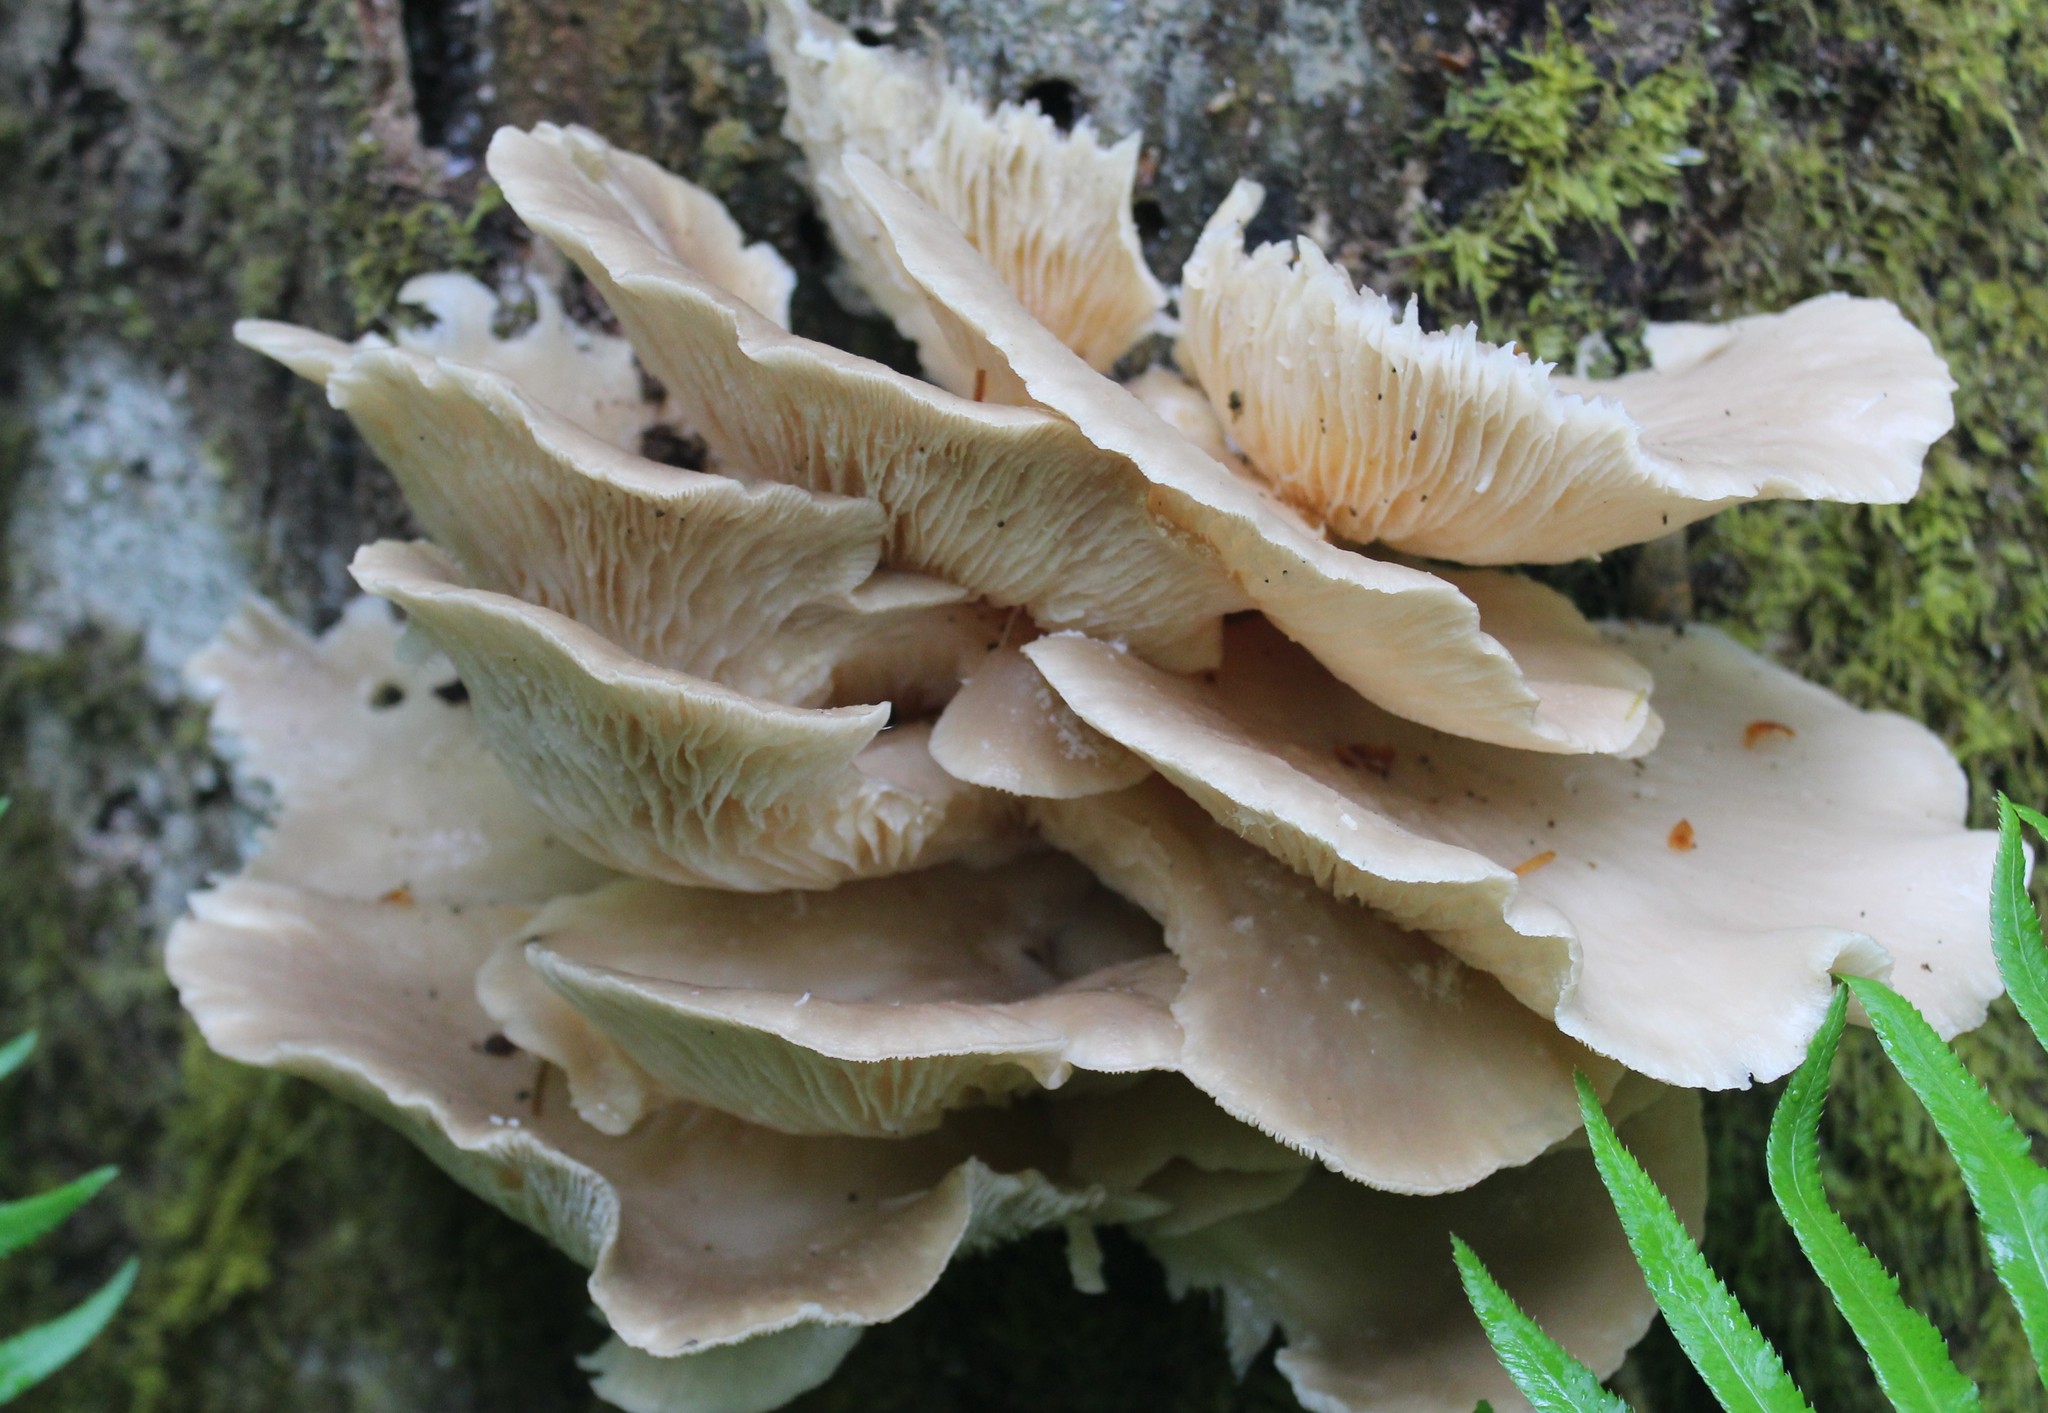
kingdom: Fungi
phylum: Basidiomycota
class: Agaricomycetes
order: Agaricales
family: Pleurotaceae
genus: Pleurotus
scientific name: Pleurotus ostreatus
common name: Oyster mushroom
